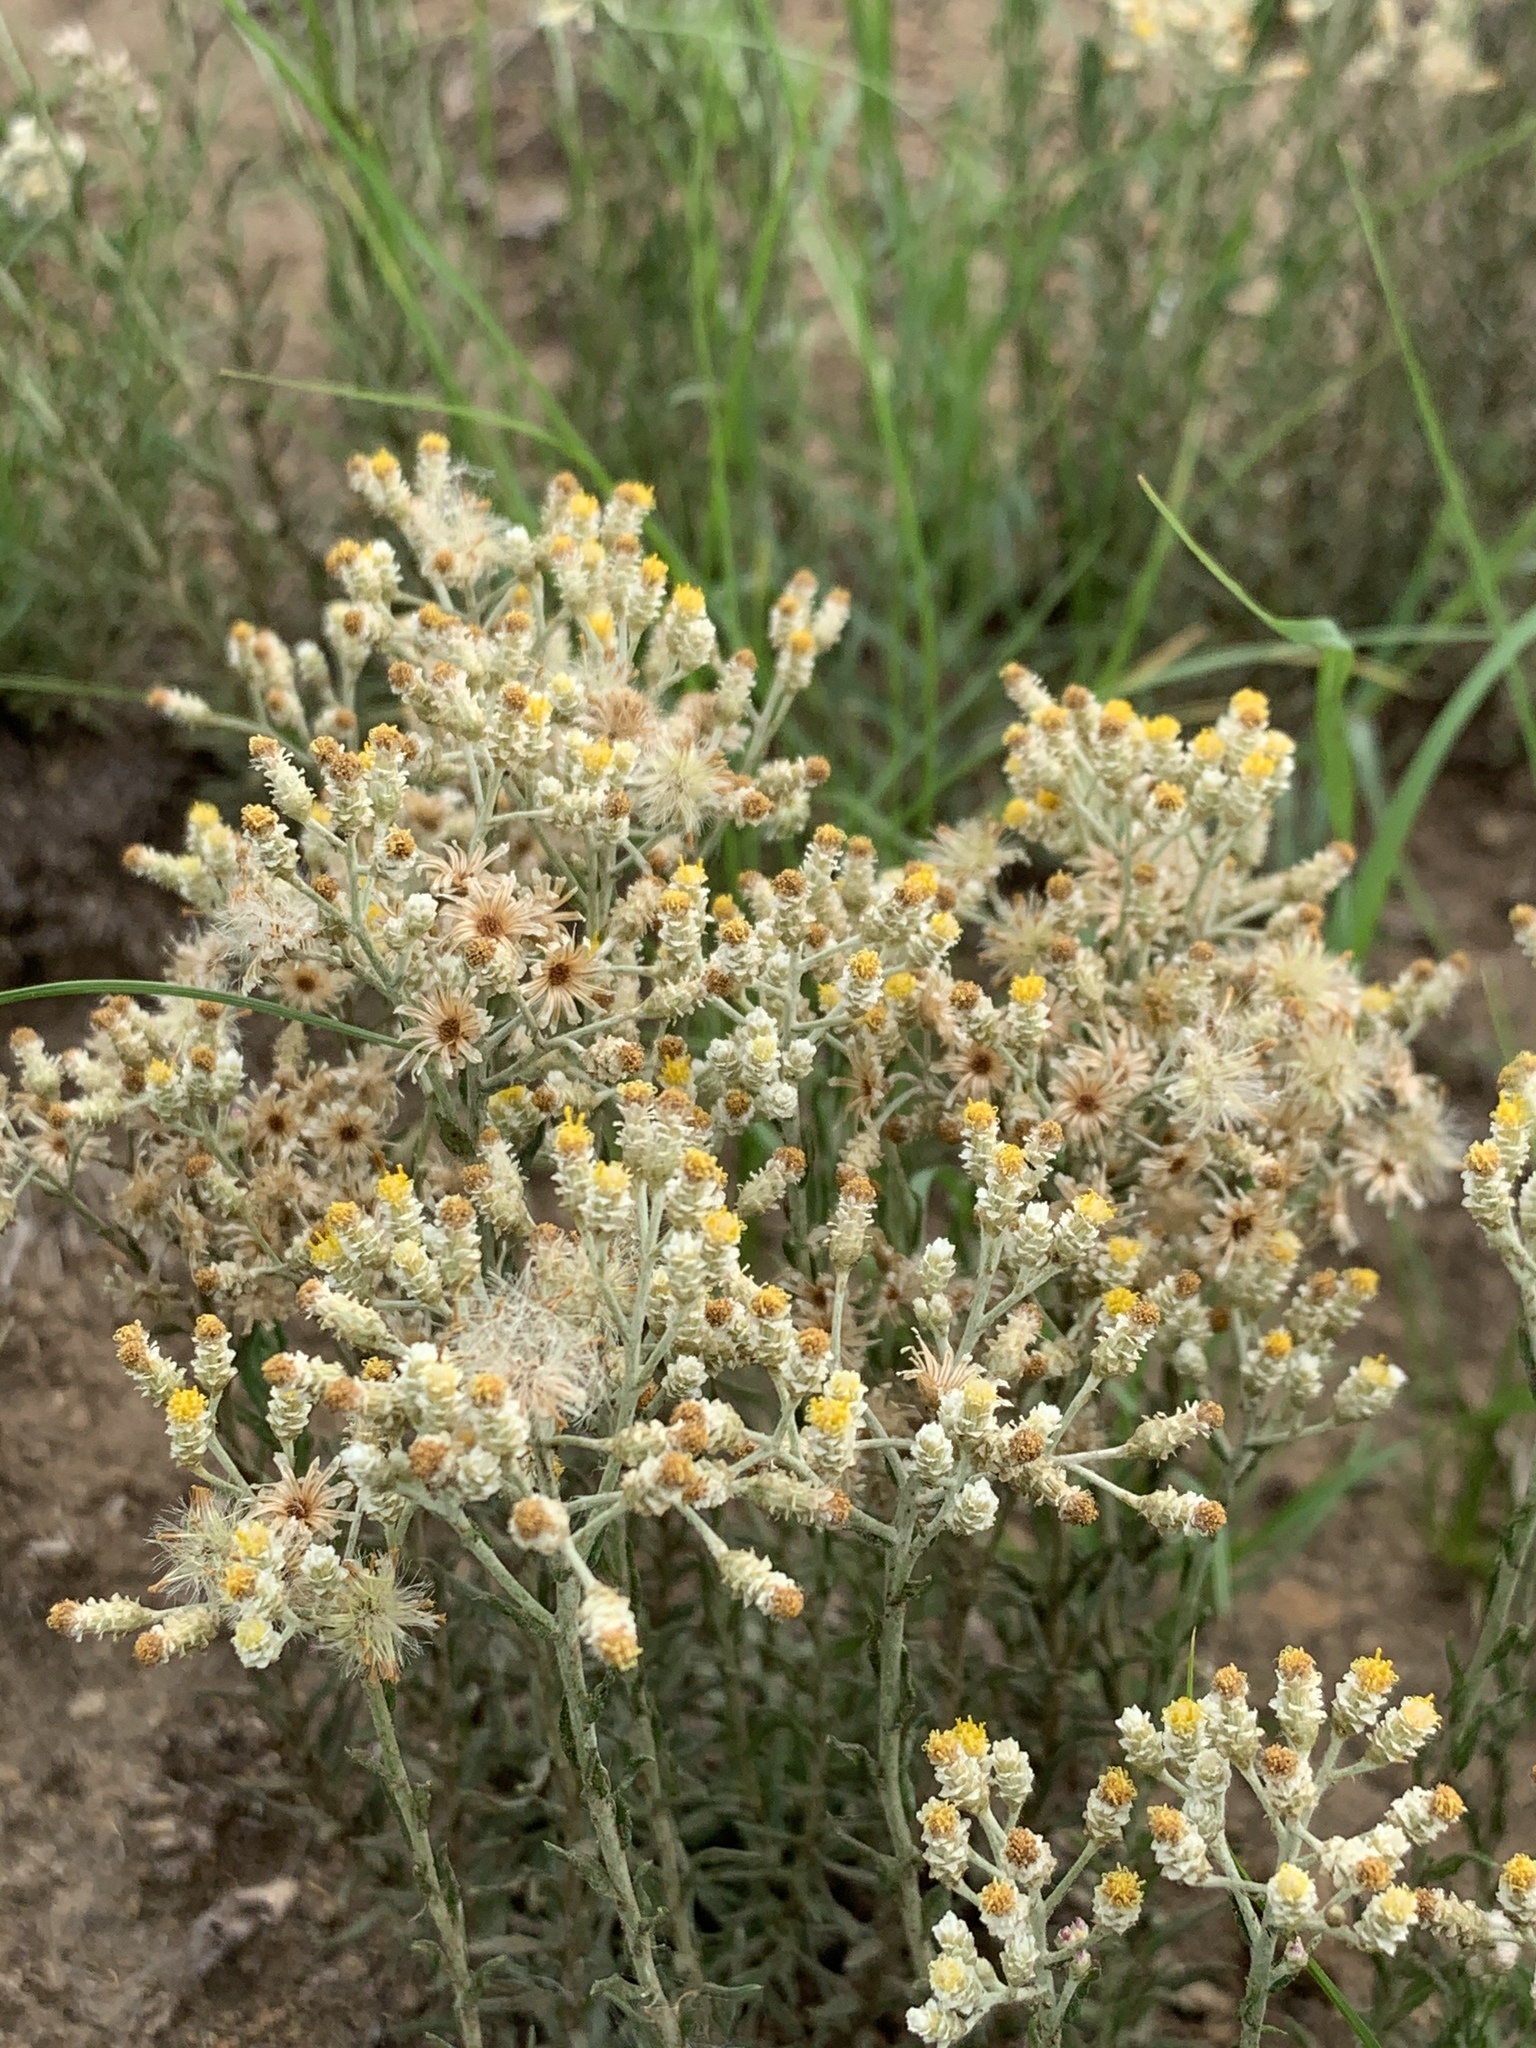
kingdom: Plantae
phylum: Tracheophyta
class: Magnoliopsida
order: Asterales
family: Asteraceae
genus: Helichrysum
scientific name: Helichrysum rugulosum
